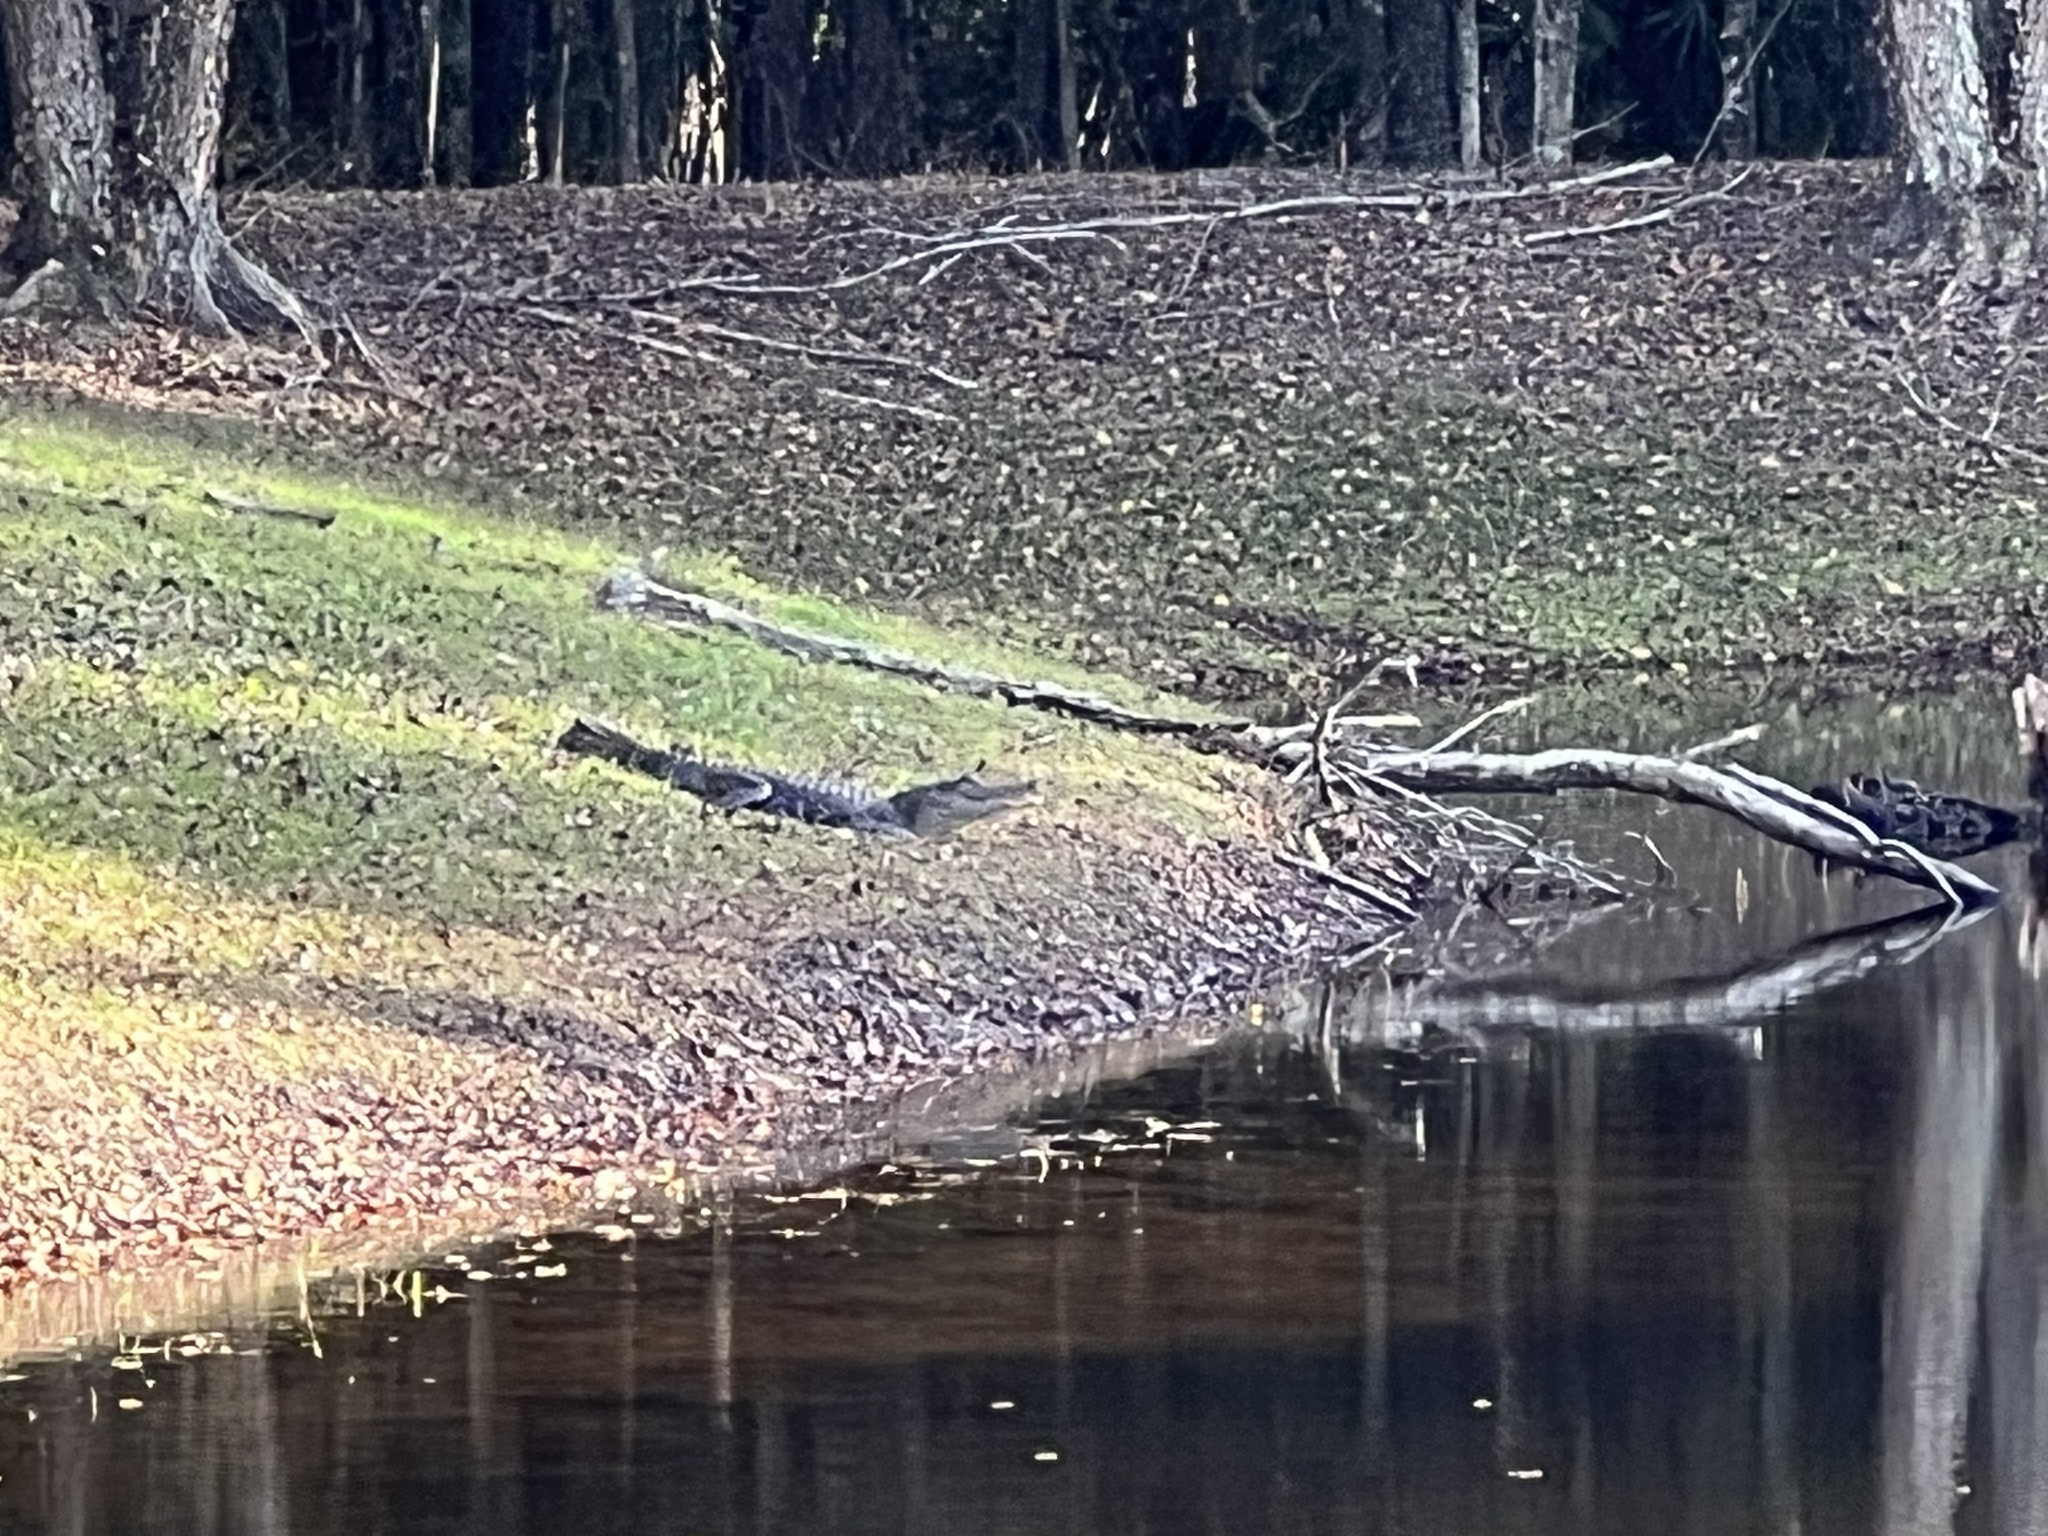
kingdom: Animalia
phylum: Chordata
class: Crocodylia
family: Alligatoridae
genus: Alligator
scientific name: Alligator mississippiensis
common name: American alligator
